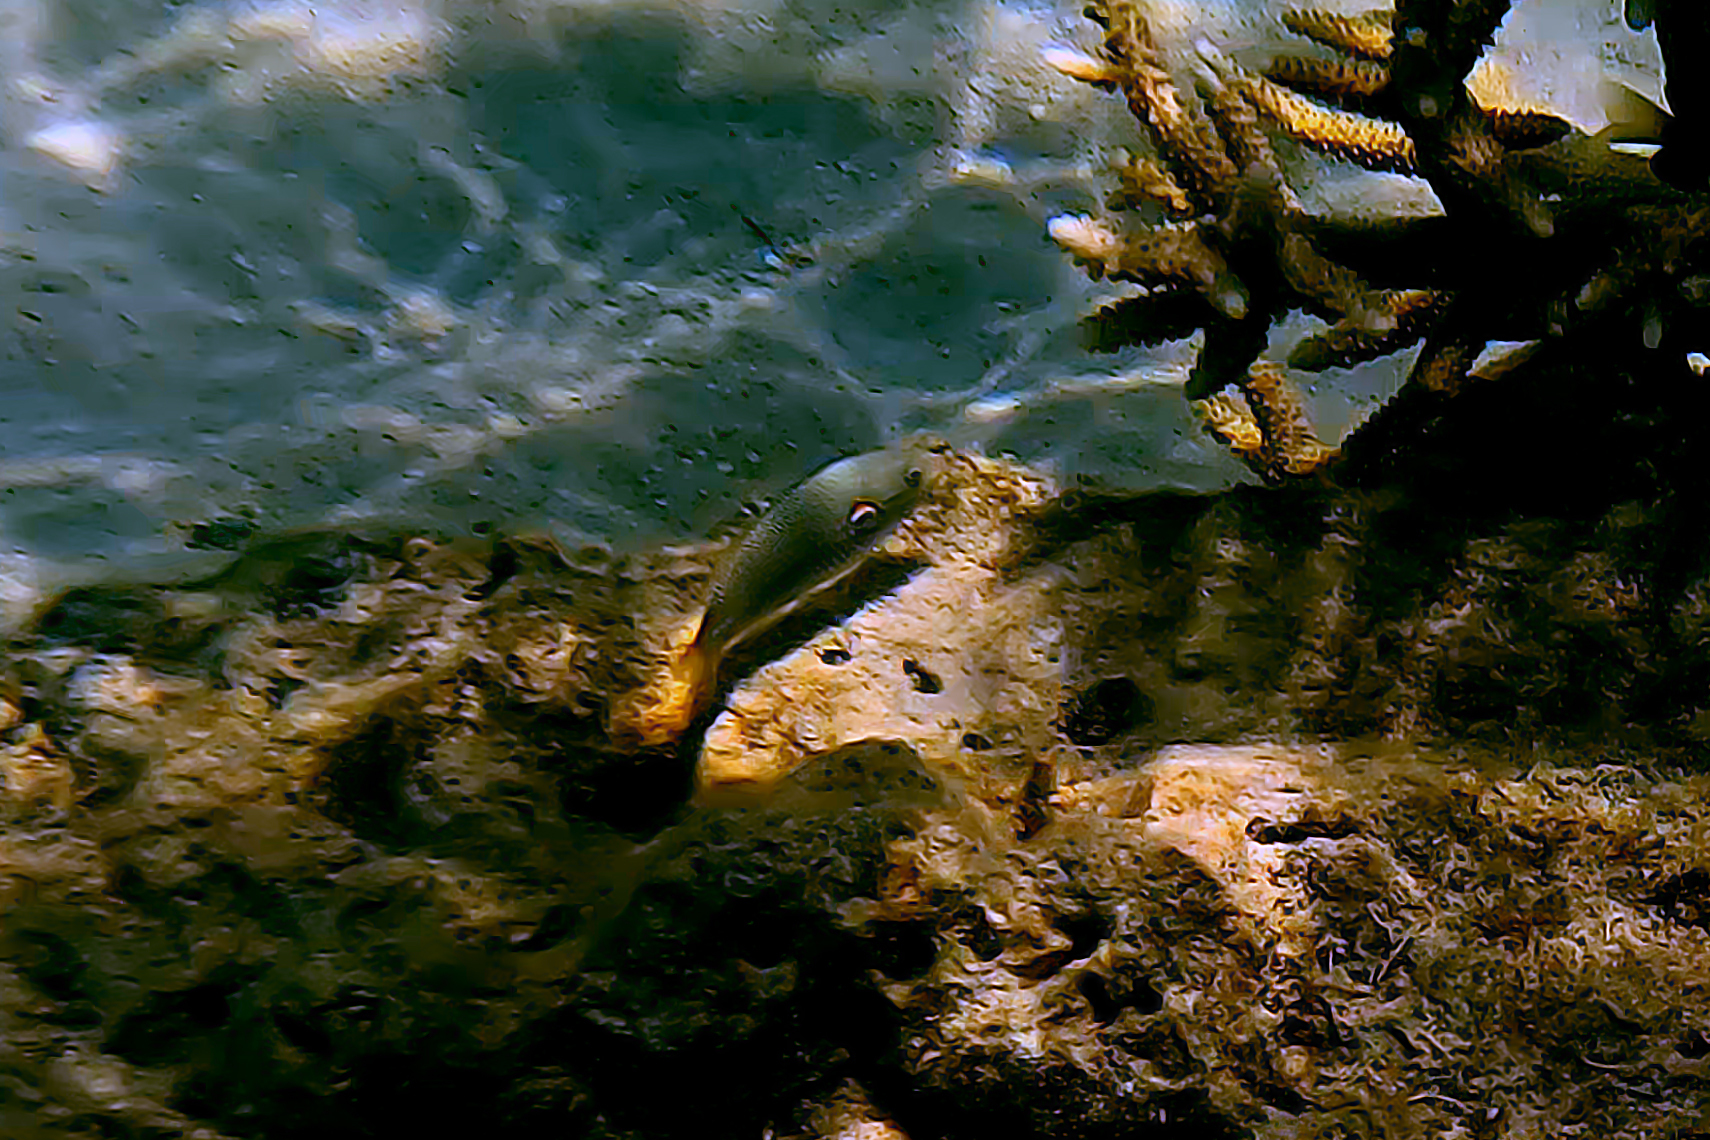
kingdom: Animalia
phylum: Chordata
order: Perciformes
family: Labridae
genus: Stethojulis
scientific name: Stethojulis bandanensis
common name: Red shoulder wrasse
